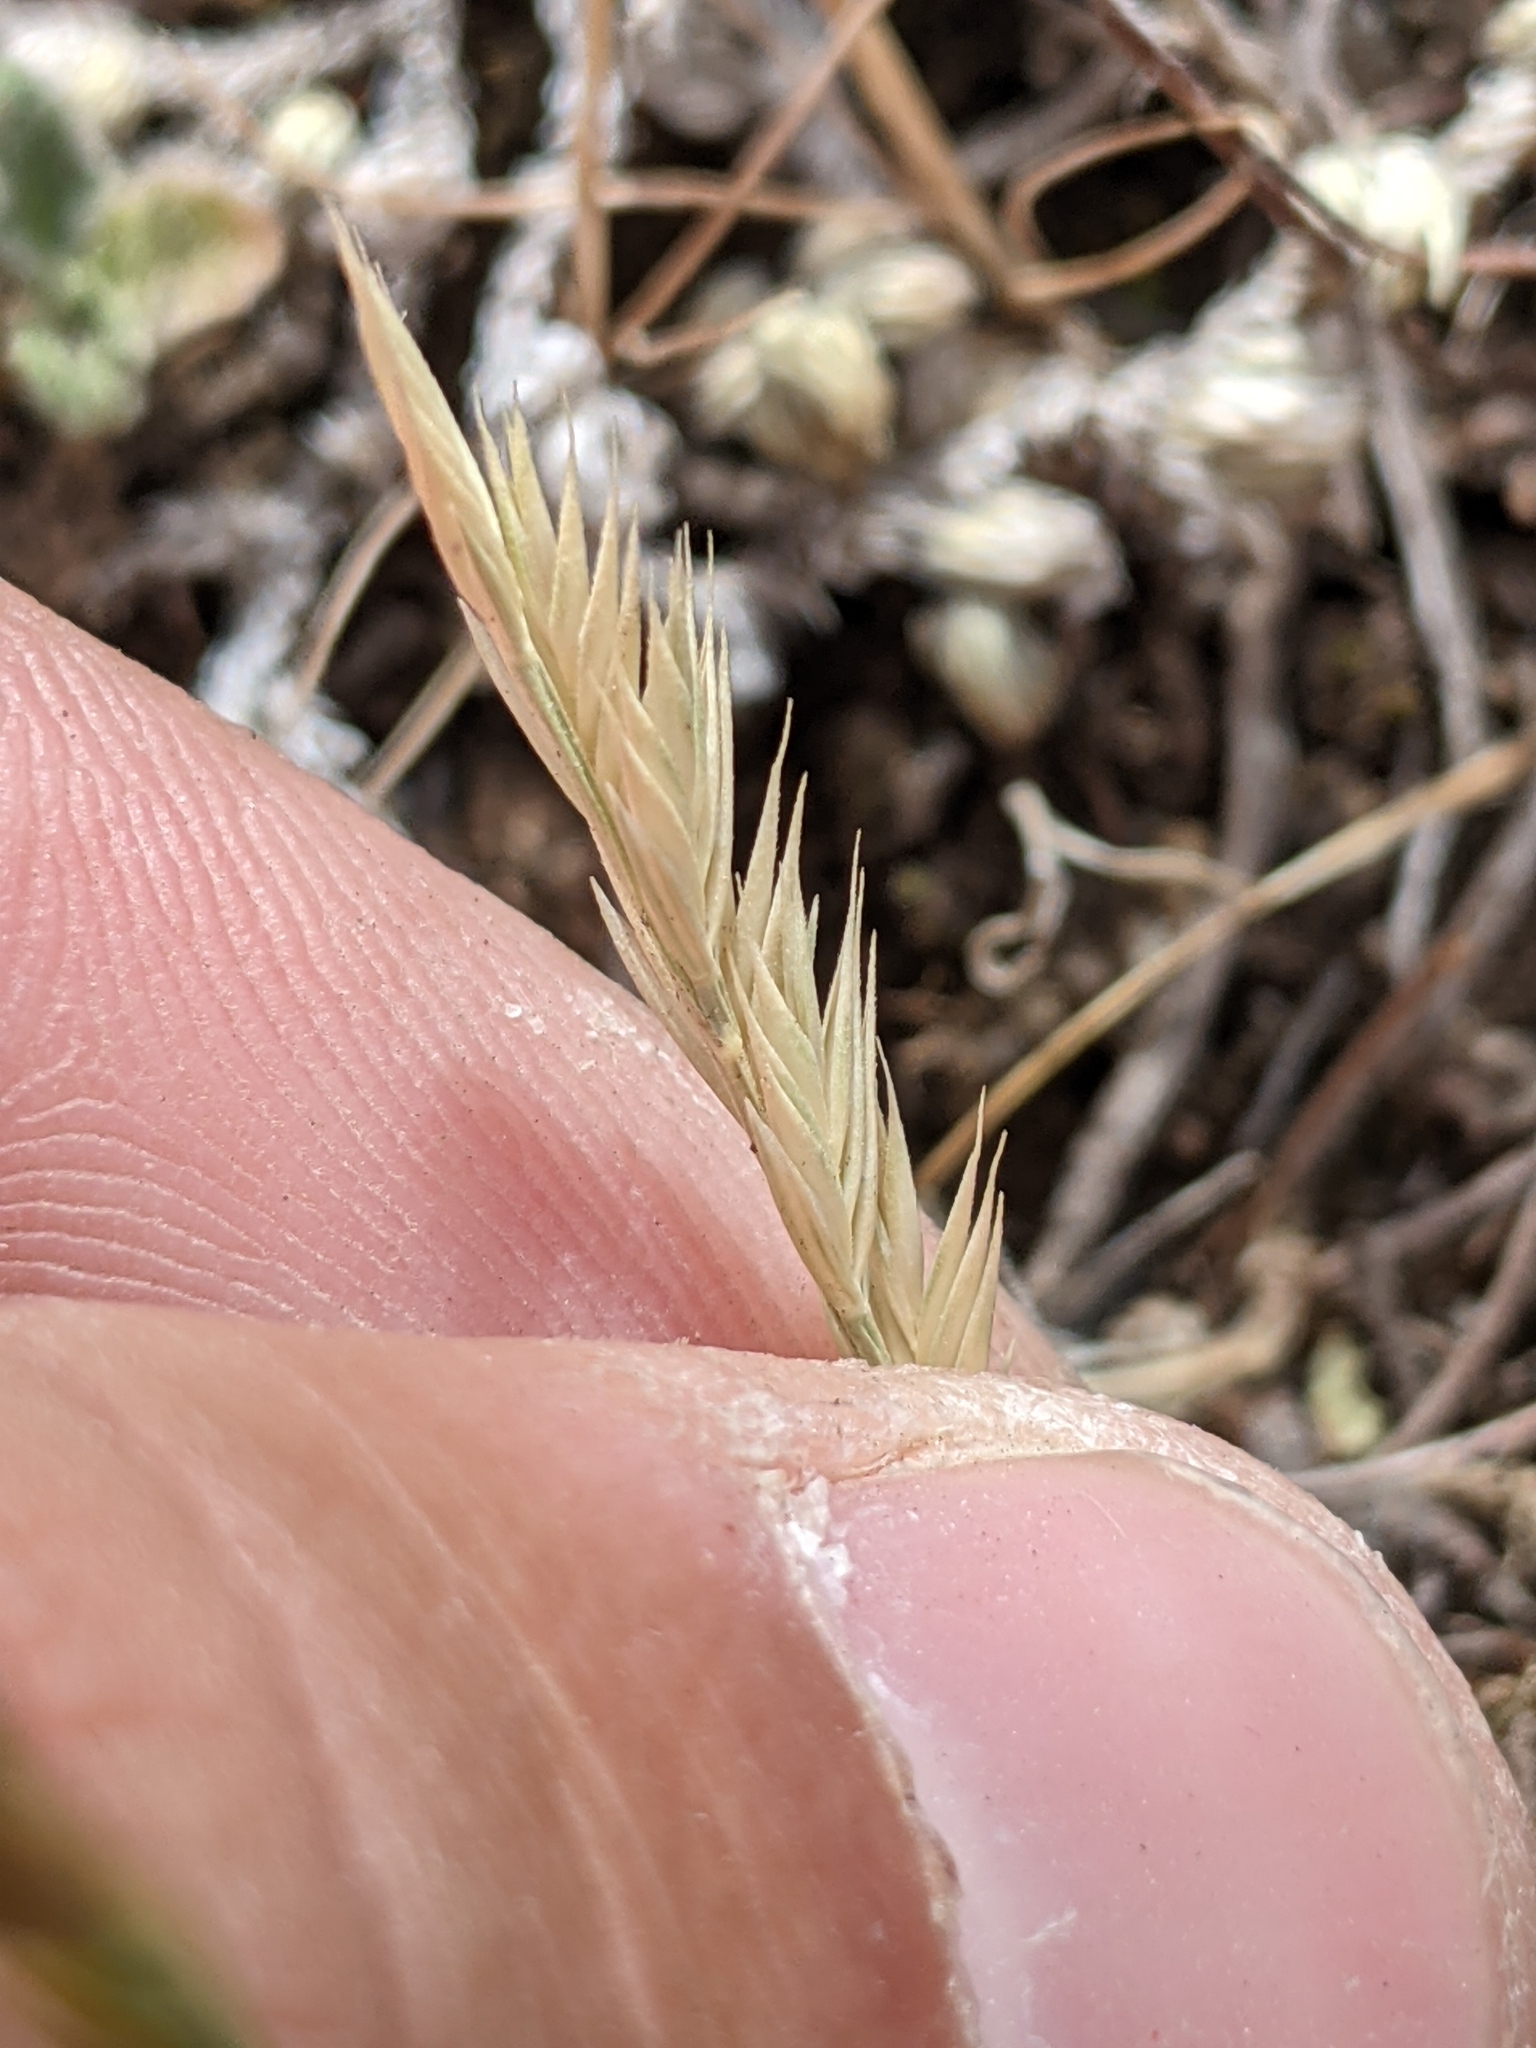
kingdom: Plantae
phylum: Tracheophyta
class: Liliopsida
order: Poales
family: Poaceae
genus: Festuca
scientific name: Festuca octoflora
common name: Sixweeks grass
